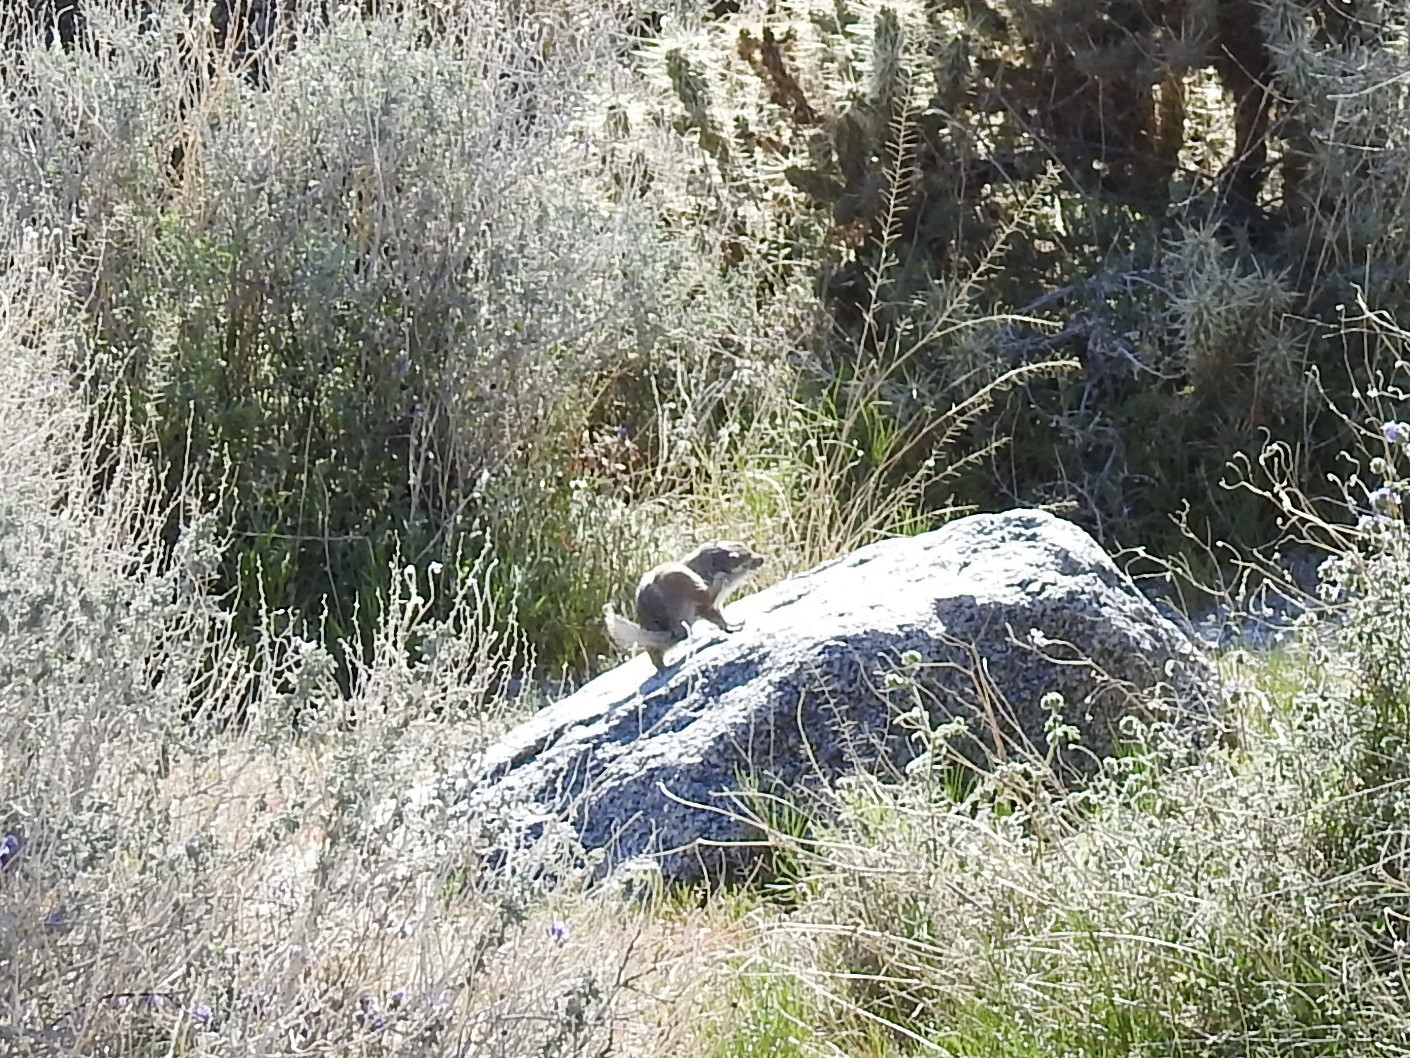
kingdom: Animalia
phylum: Chordata
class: Mammalia
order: Rodentia
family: Sciuridae
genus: Ammospermophilus
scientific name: Ammospermophilus leucurus
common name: White-tailed antelope squirrel
